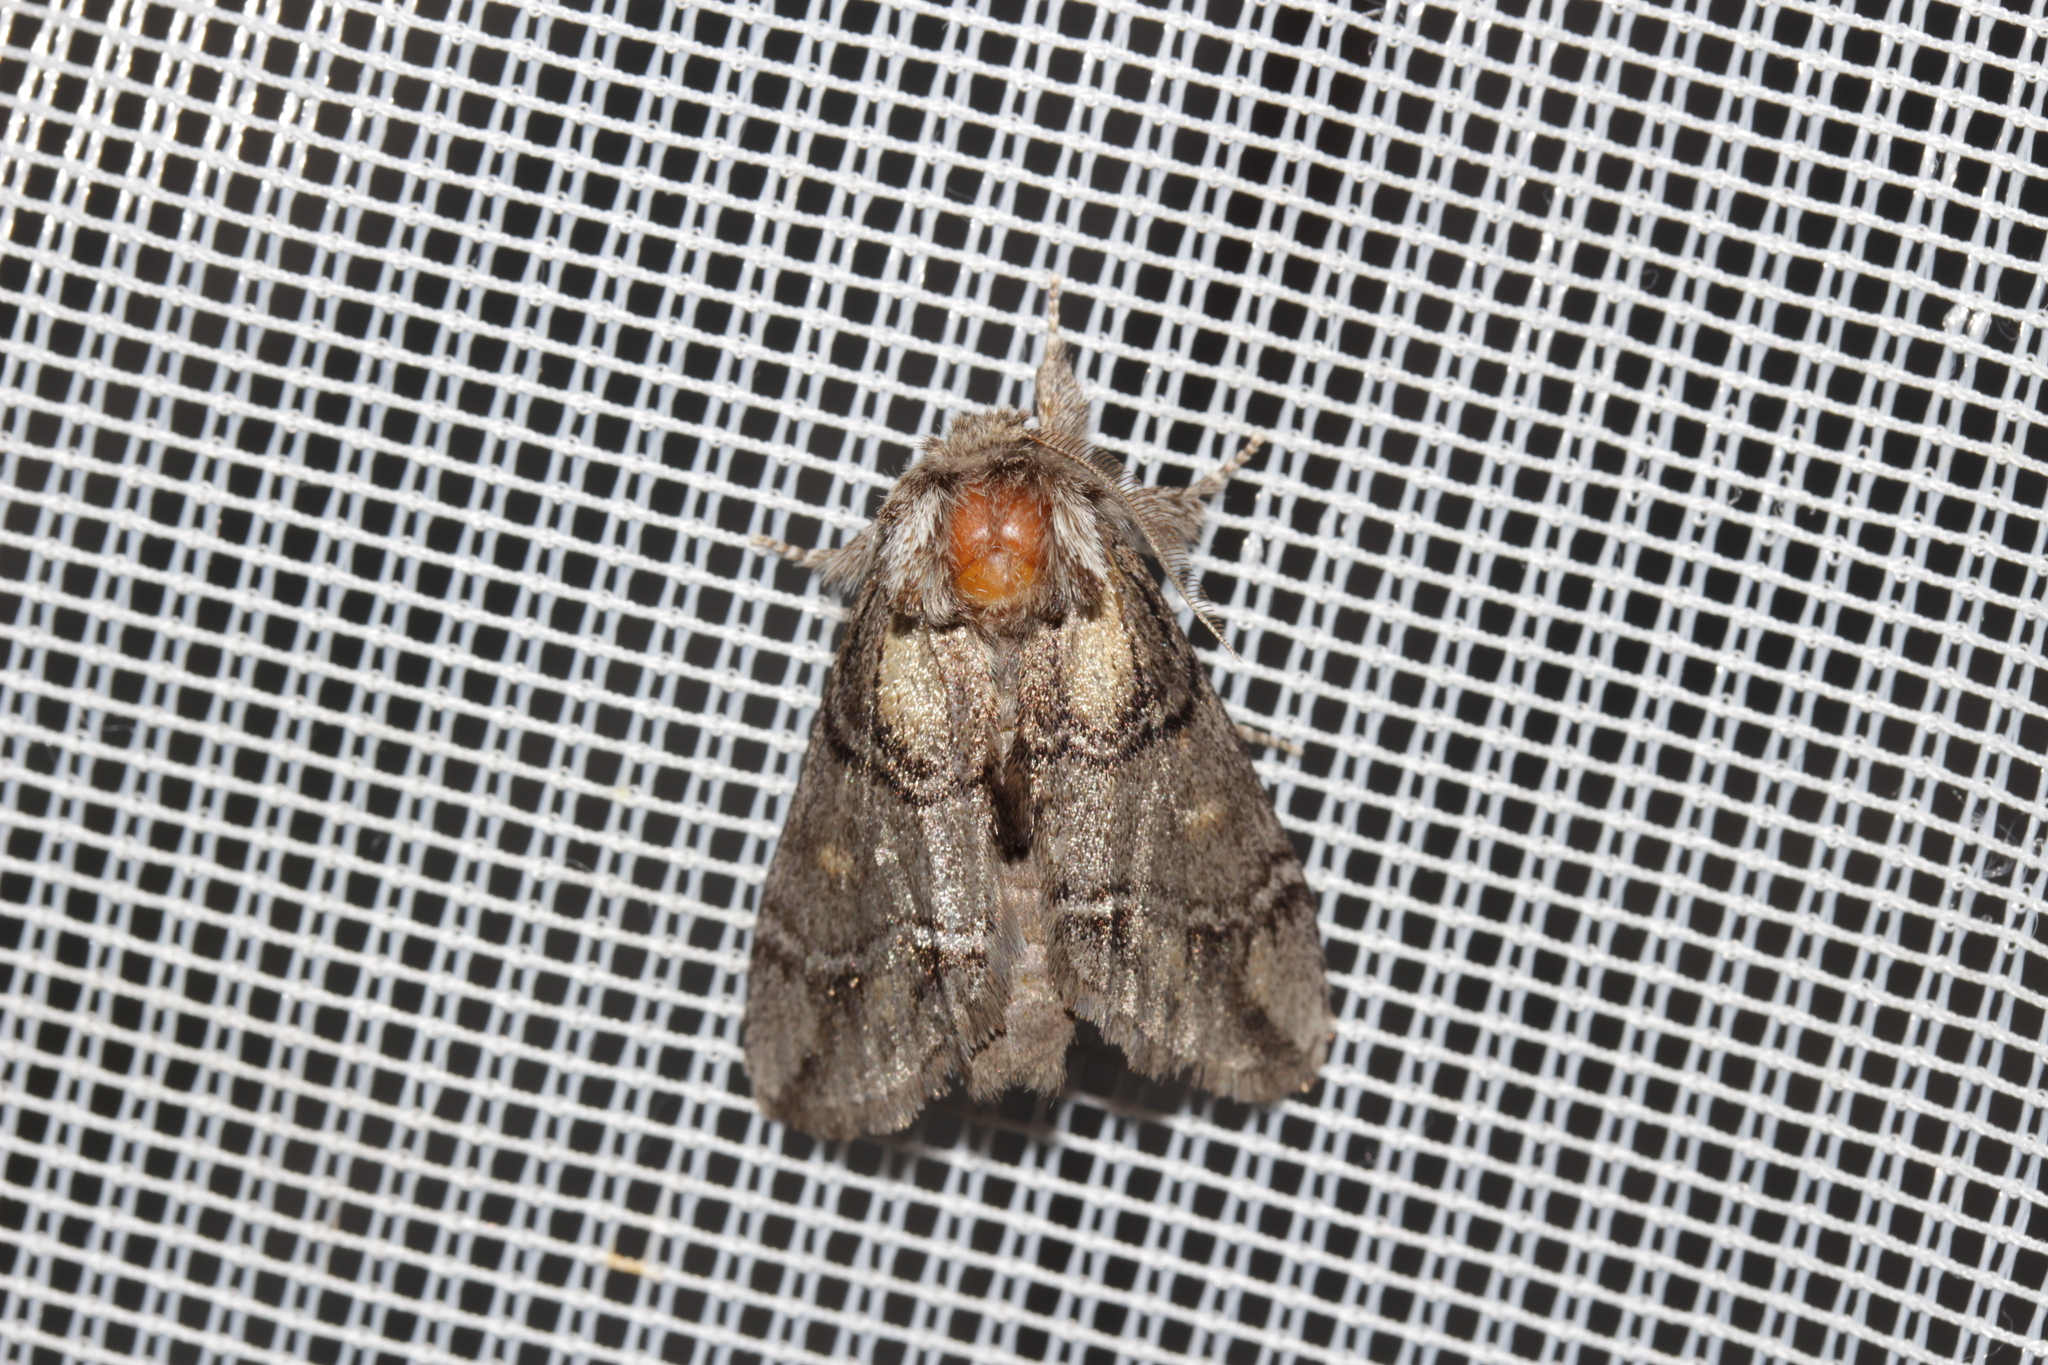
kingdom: Animalia
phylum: Arthropoda
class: Insecta
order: Lepidoptera
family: Notodontidae
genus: Drymonia
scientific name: Drymonia velitaris
